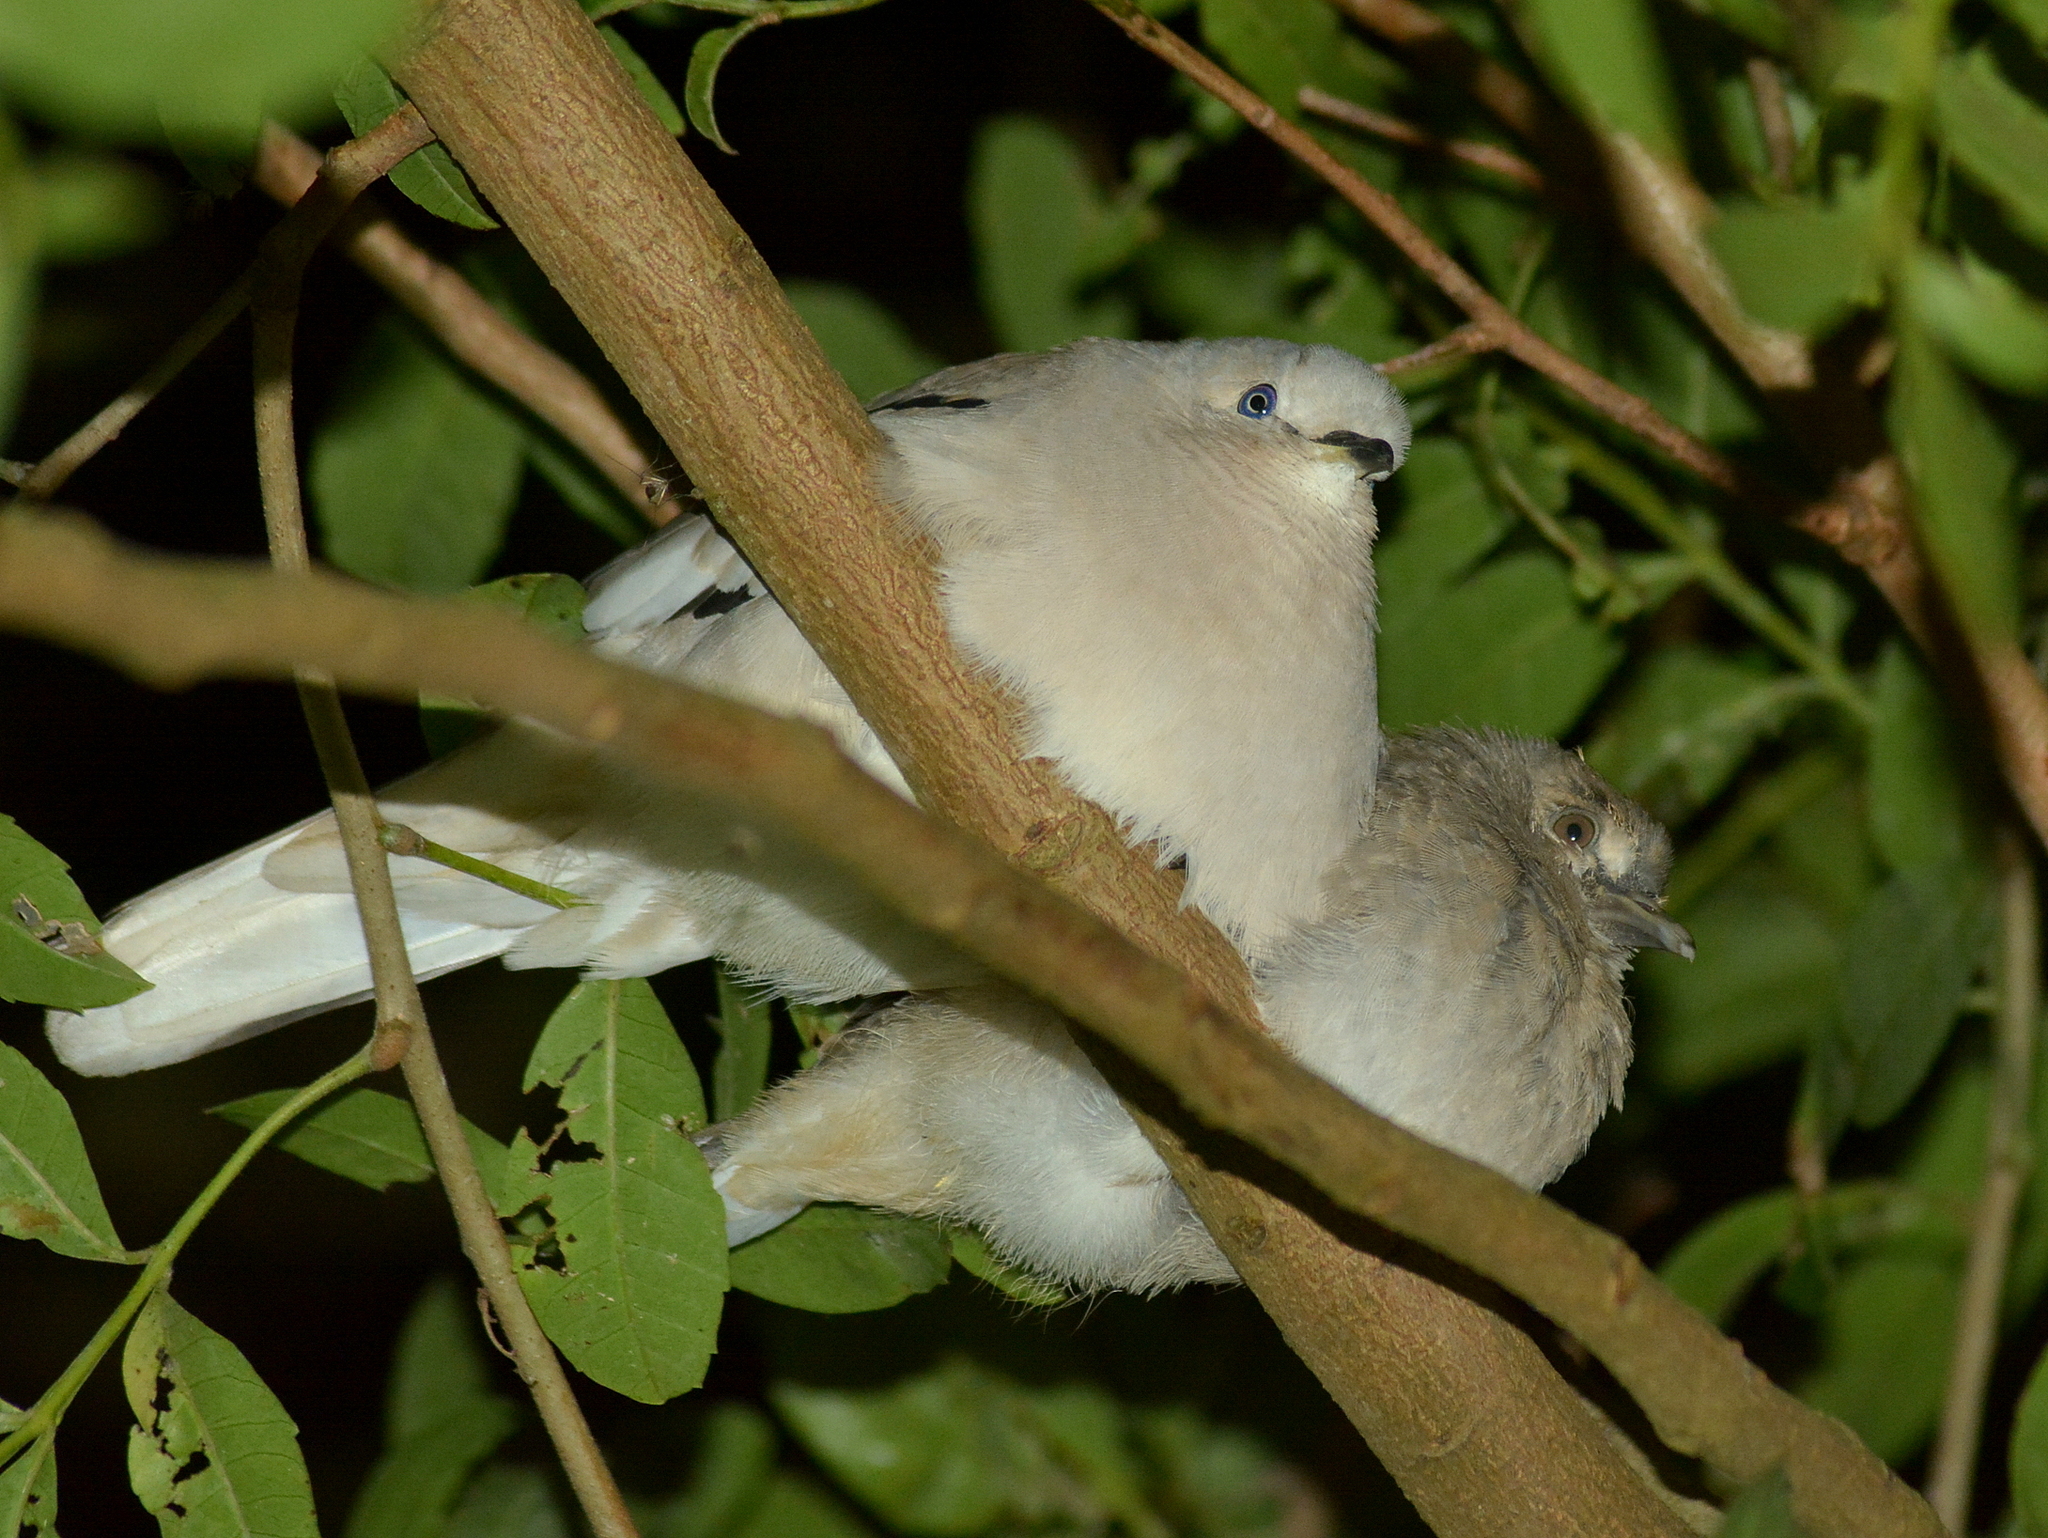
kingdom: Animalia
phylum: Chordata
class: Aves
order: Columbiformes
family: Columbidae
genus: Columbina
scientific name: Columbina picui
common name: Picui ground dove
